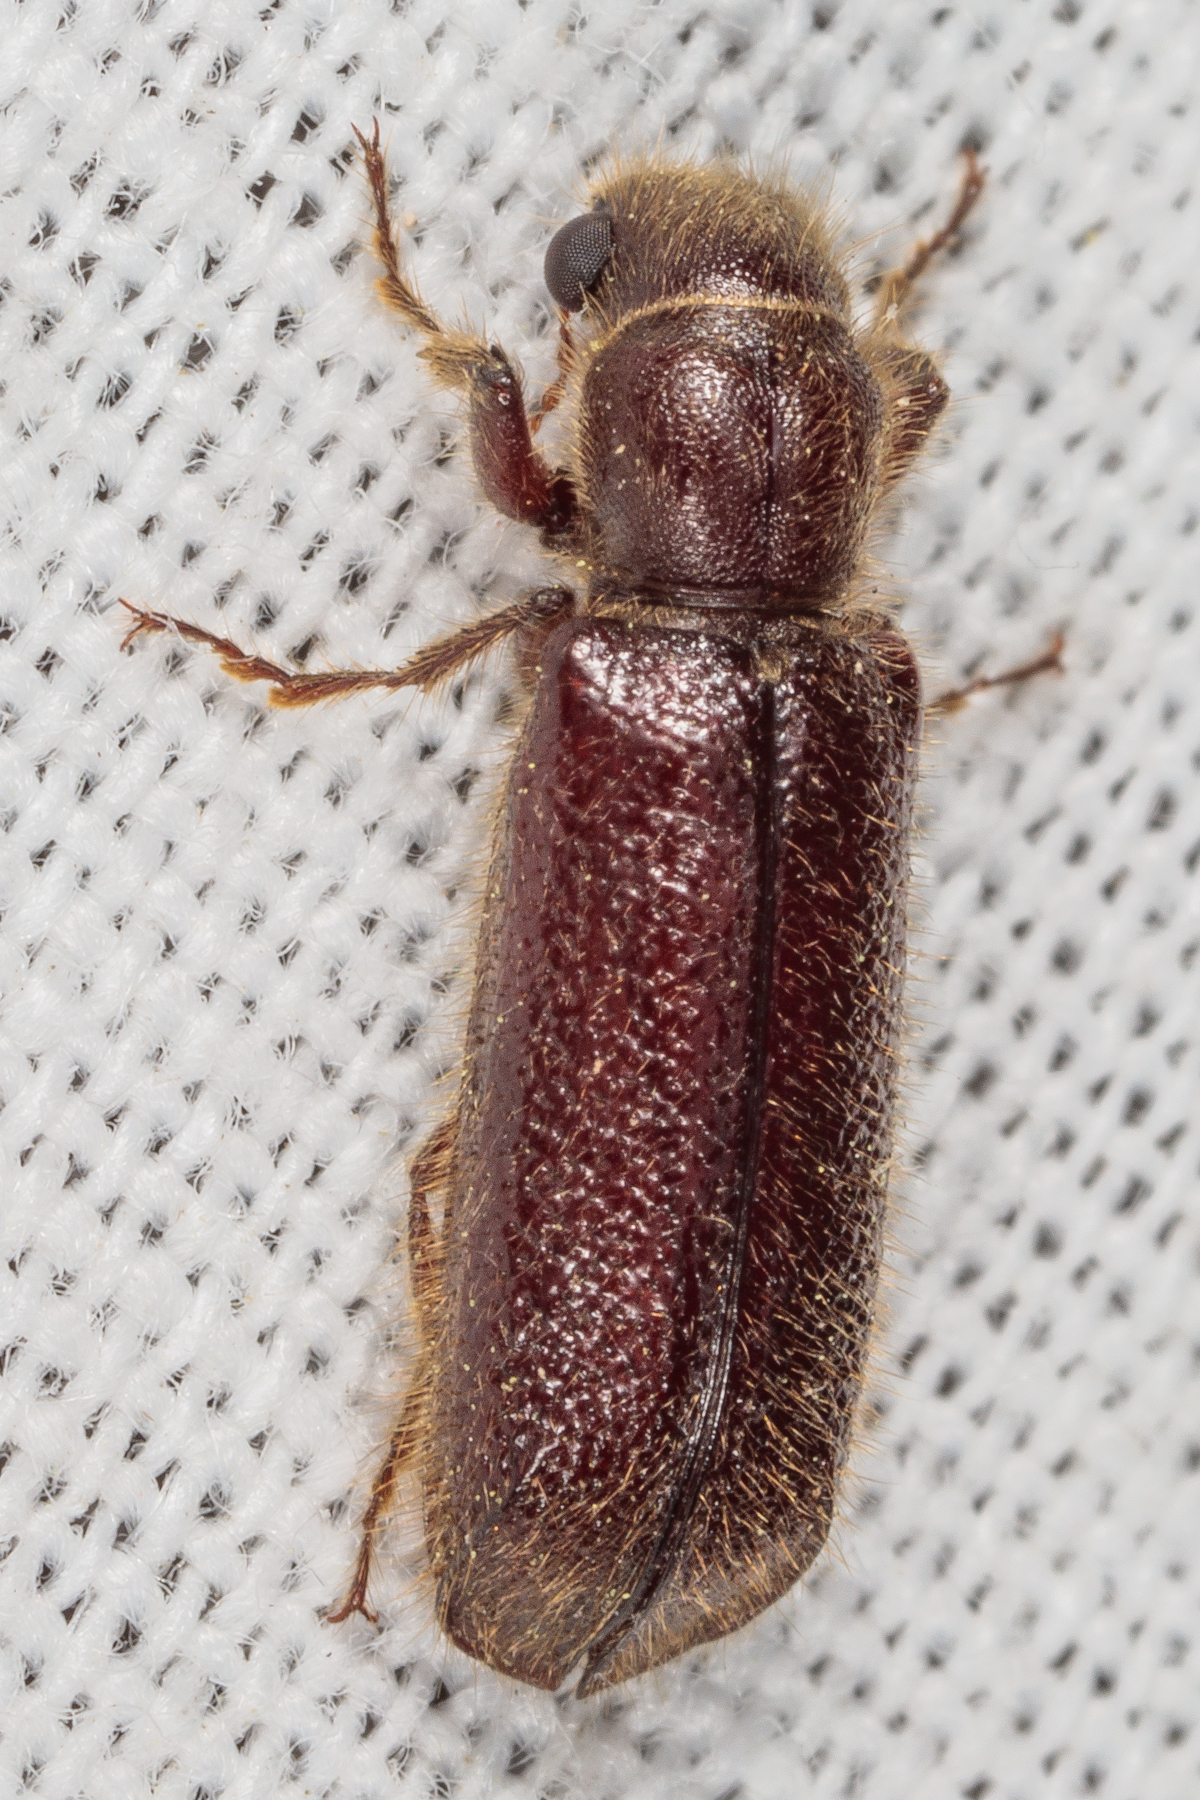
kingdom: Animalia
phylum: Arthropoda
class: Insecta
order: Coleoptera
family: Bostrichidae
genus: Melalgus
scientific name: Melalgus plicatus
